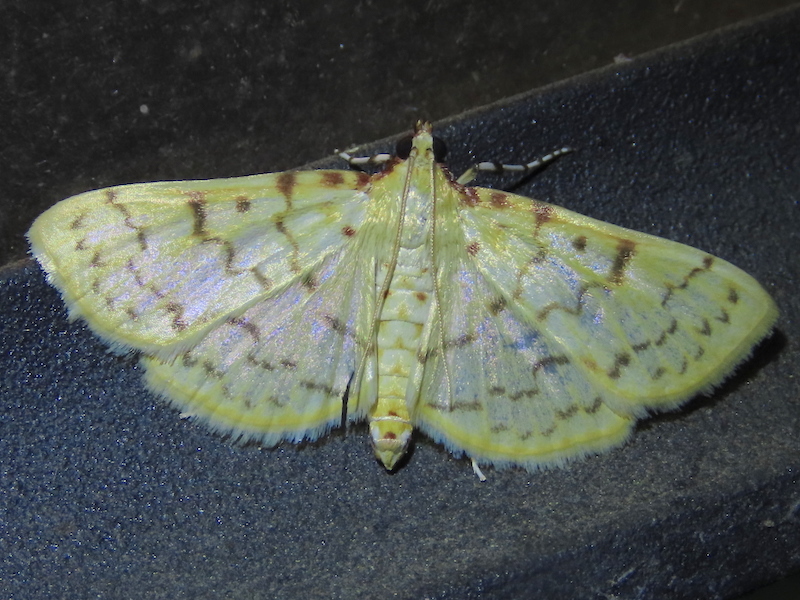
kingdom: Animalia
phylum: Arthropoda
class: Insecta
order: Lepidoptera
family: Crambidae
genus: Polygrammodes
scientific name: Polygrammodes flavidalis
